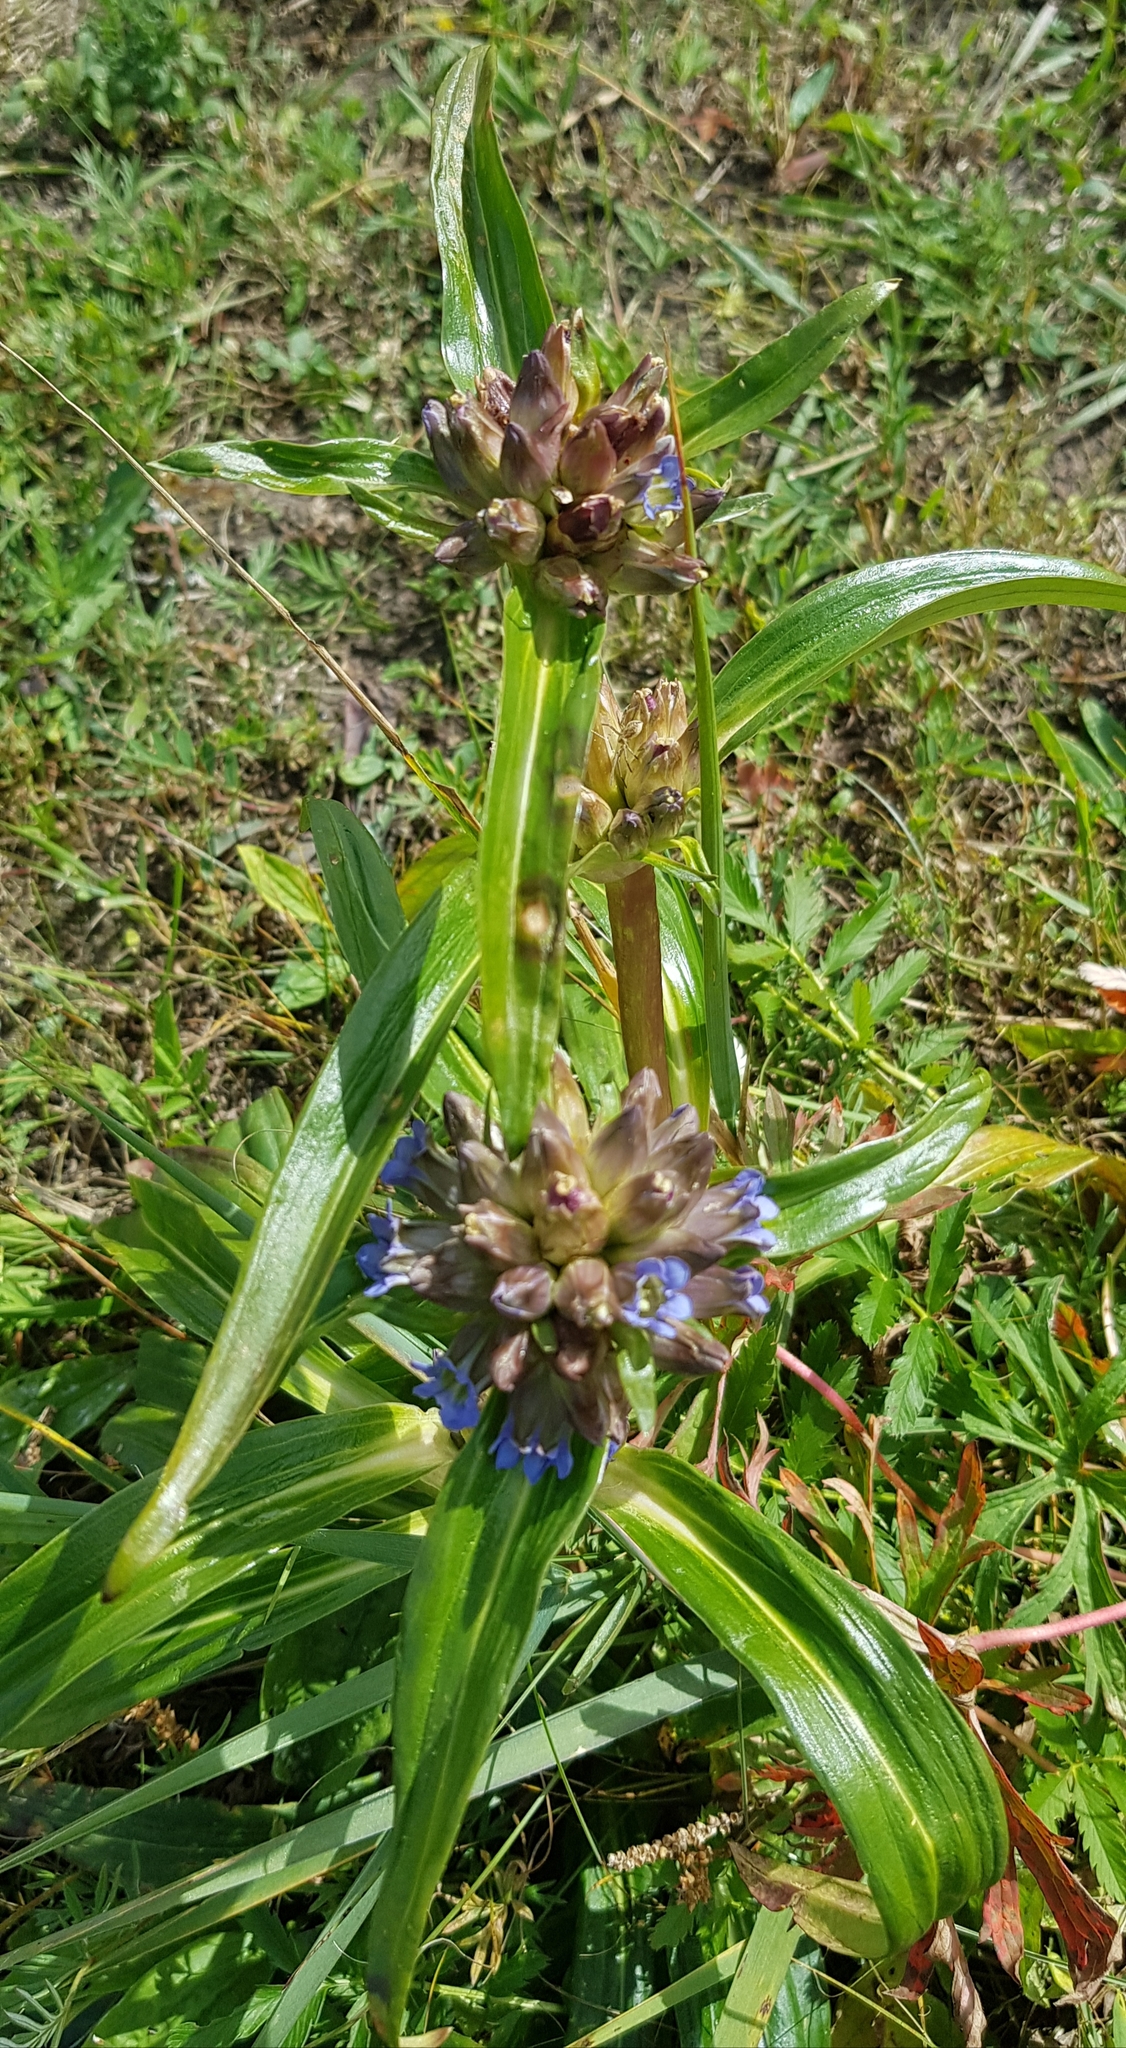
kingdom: Plantae
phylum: Tracheophyta
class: Magnoliopsida
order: Gentianales
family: Gentianaceae
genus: Gentiana
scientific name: Gentiana macrophylla
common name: Large-leaf gentian
